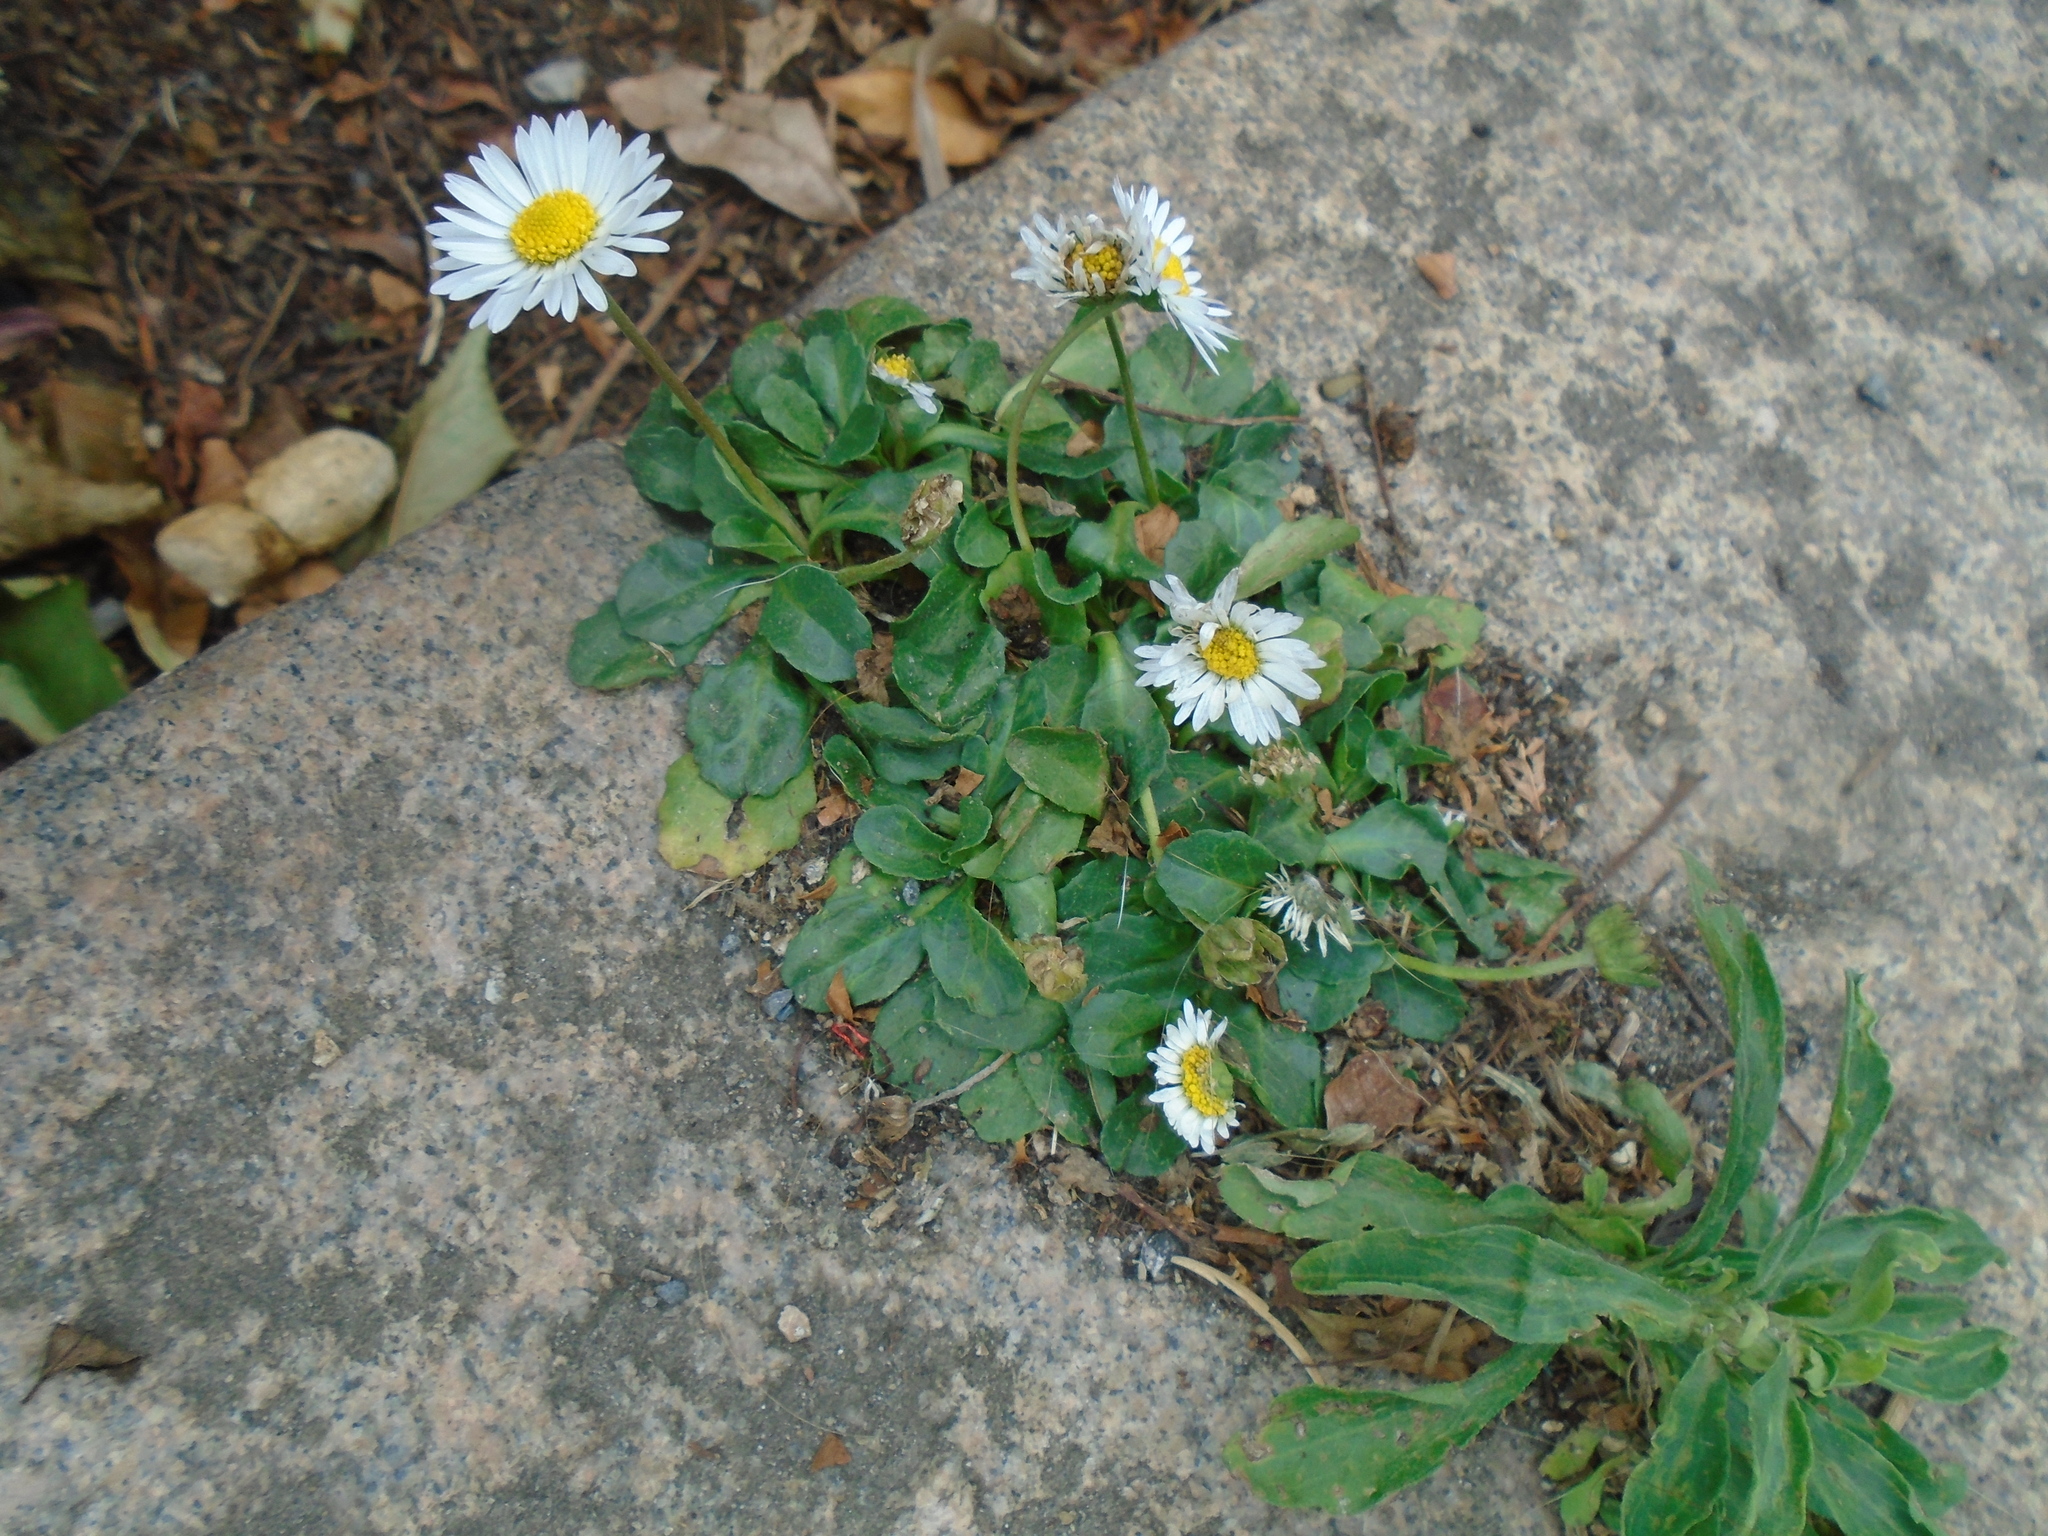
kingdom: Plantae
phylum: Tracheophyta
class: Magnoliopsida
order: Asterales
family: Asteraceae
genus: Bellis
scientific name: Bellis perennis
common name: Lawndaisy
